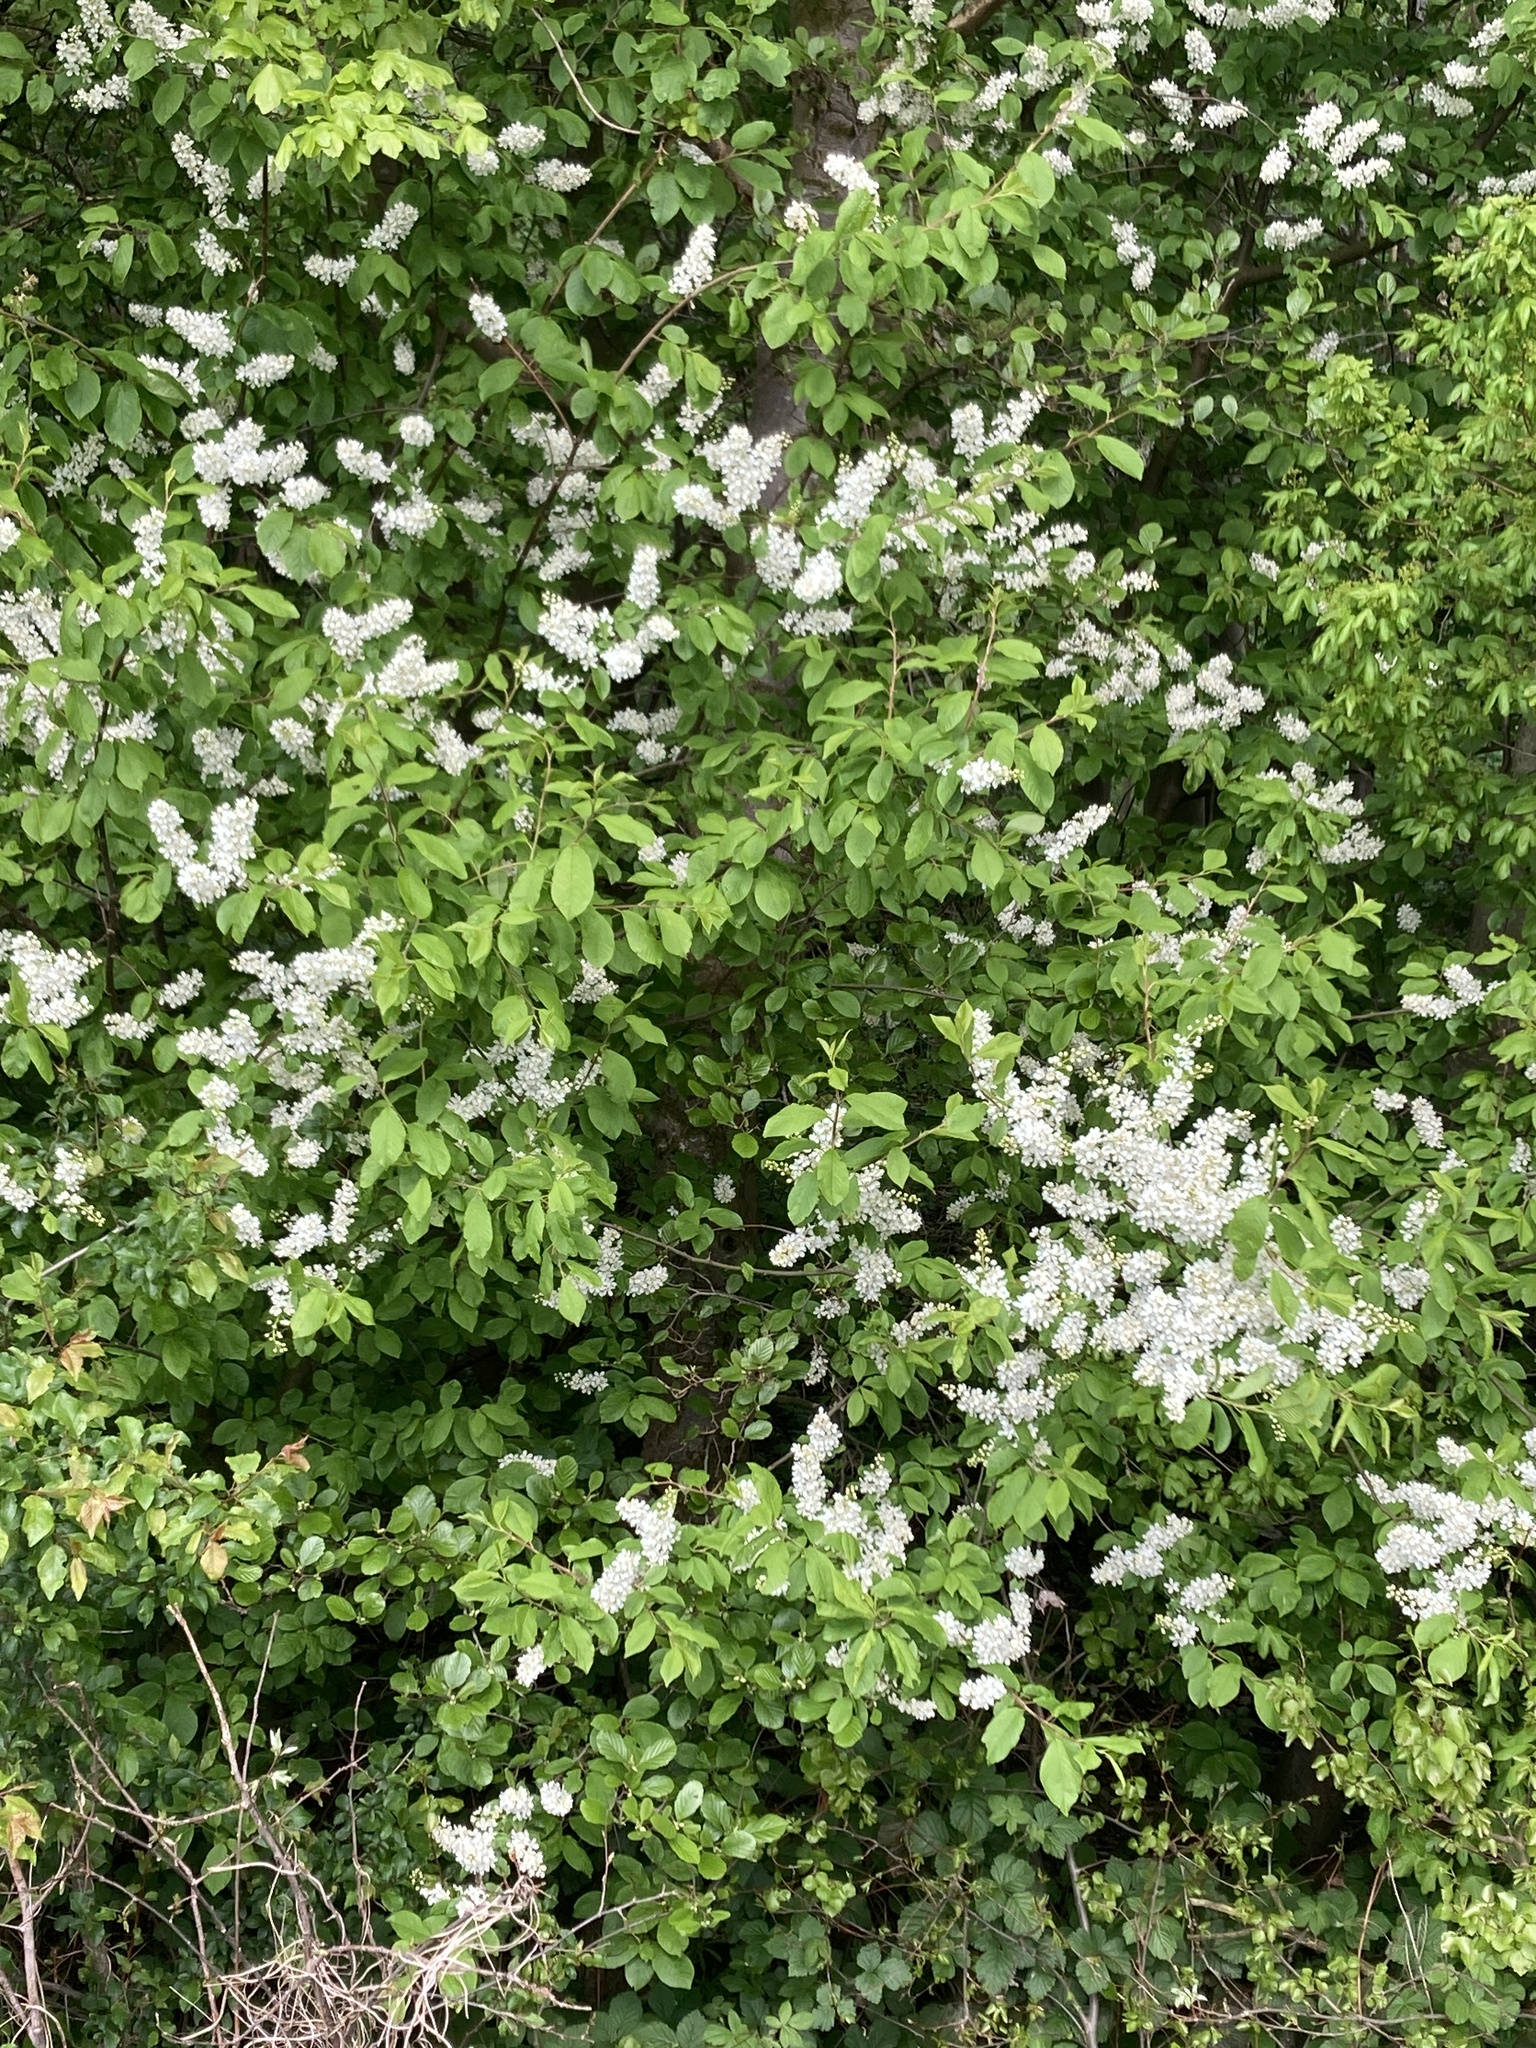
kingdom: Plantae
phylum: Tracheophyta
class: Magnoliopsida
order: Rosales
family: Rosaceae
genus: Prunus
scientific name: Prunus padus
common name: Bird cherry
